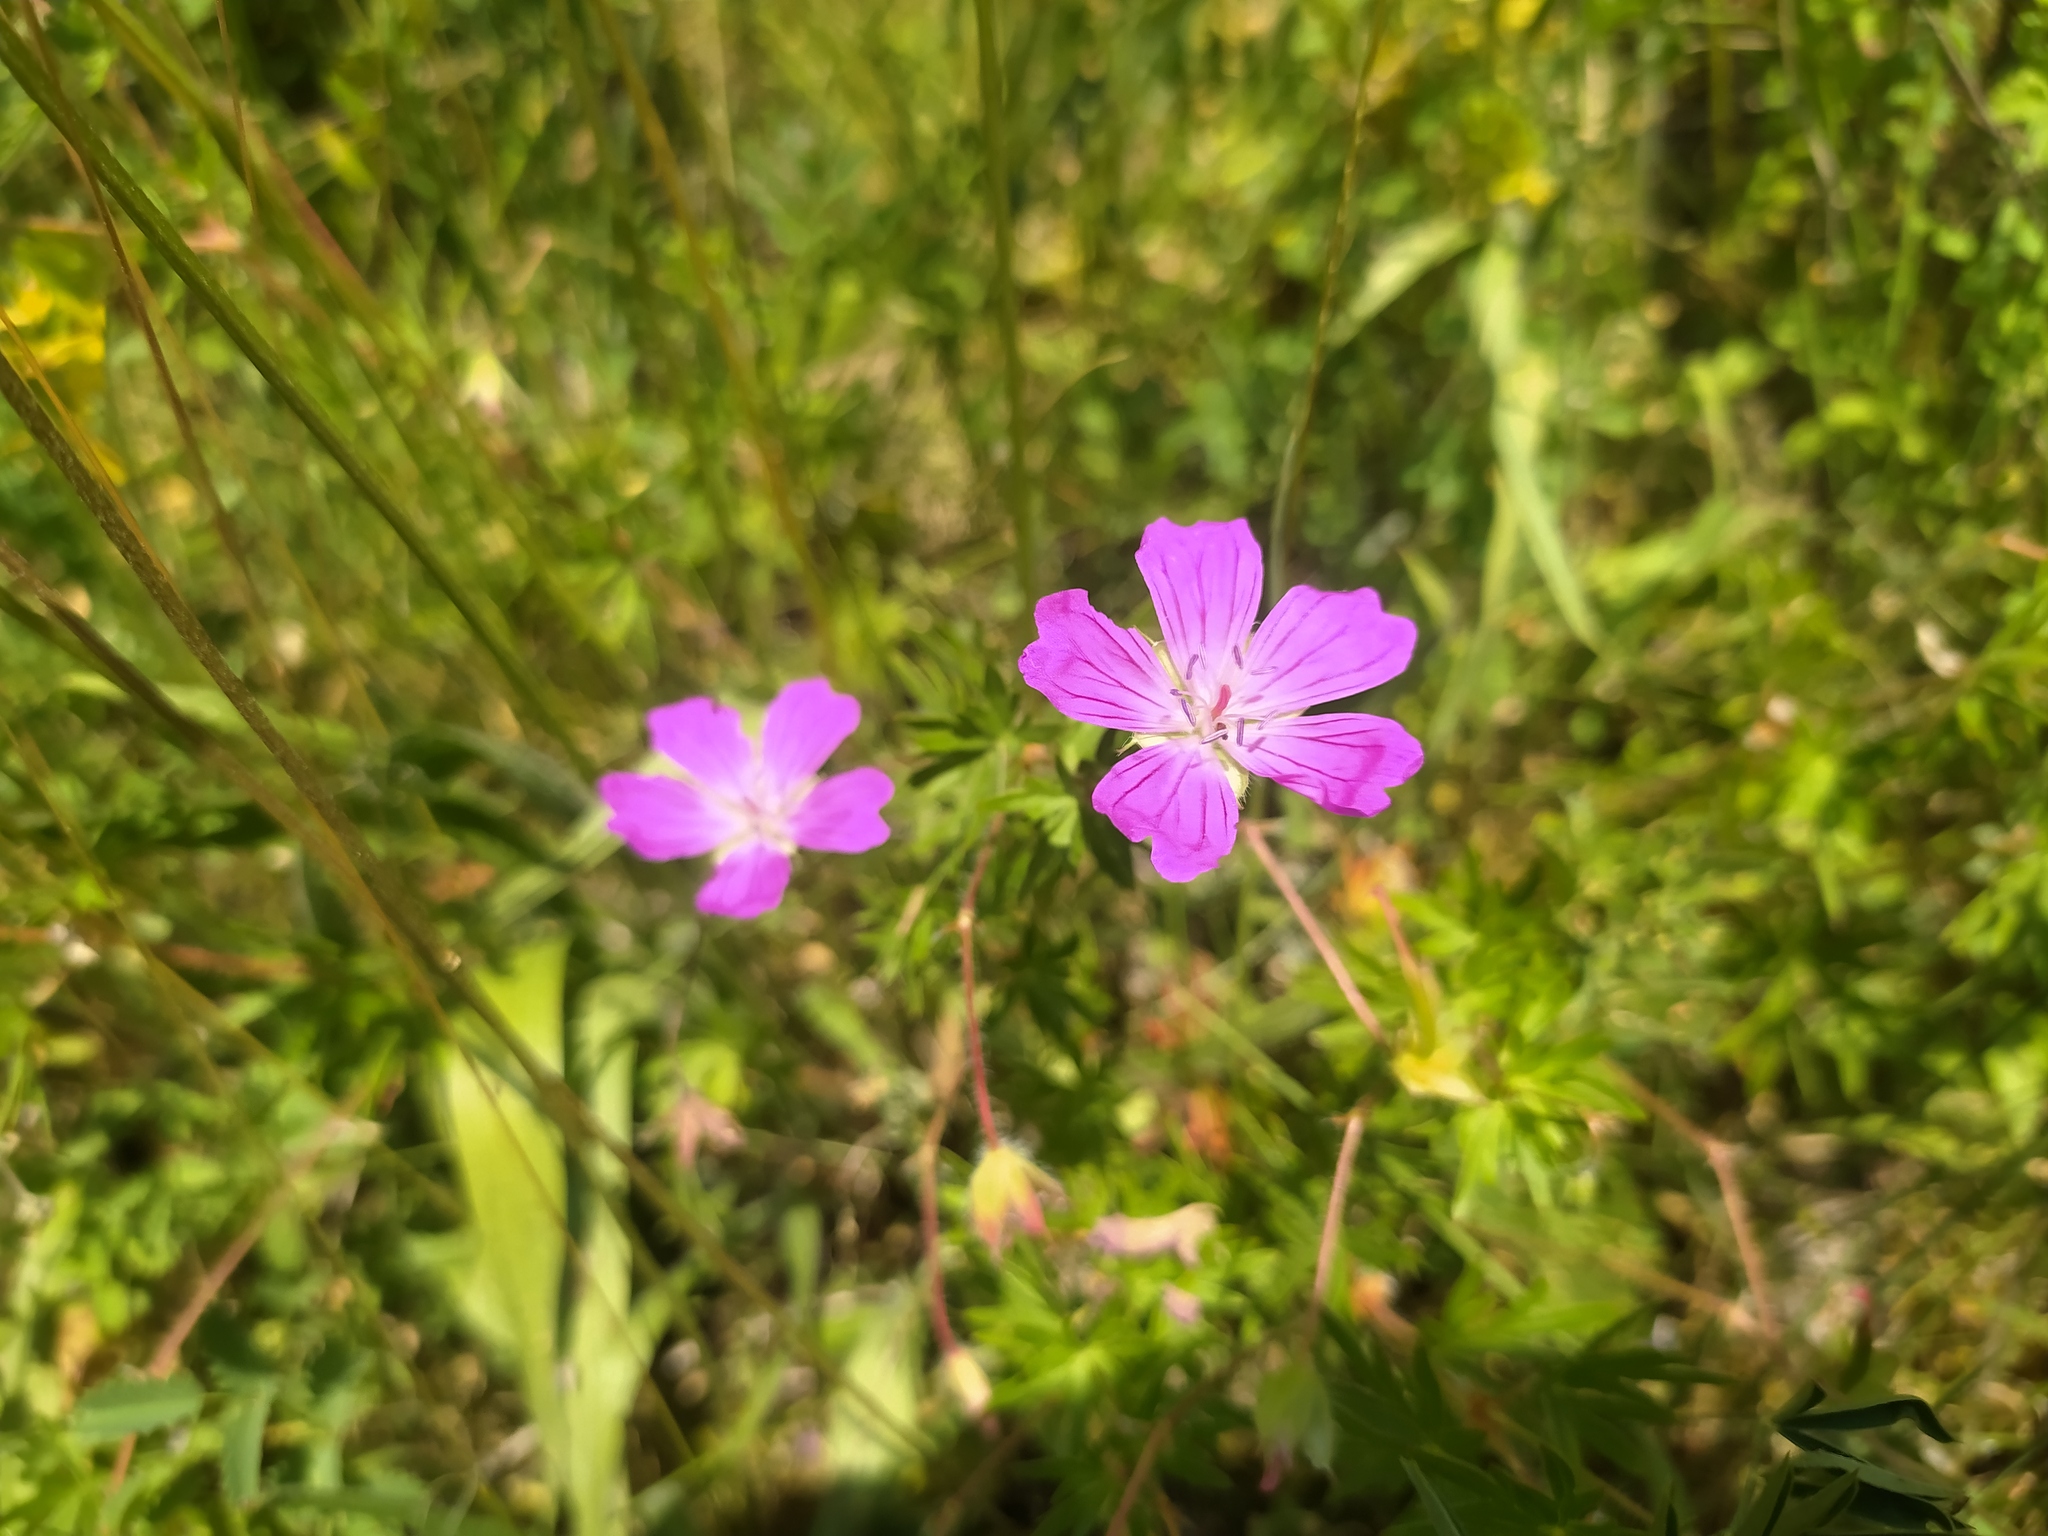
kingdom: Plantae
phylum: Tracheophyta
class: Magnoliopsida
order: Geraniales
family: Geraniaceae
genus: Geranium
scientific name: Geranium sanguineum
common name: Bloody crane's-bill
